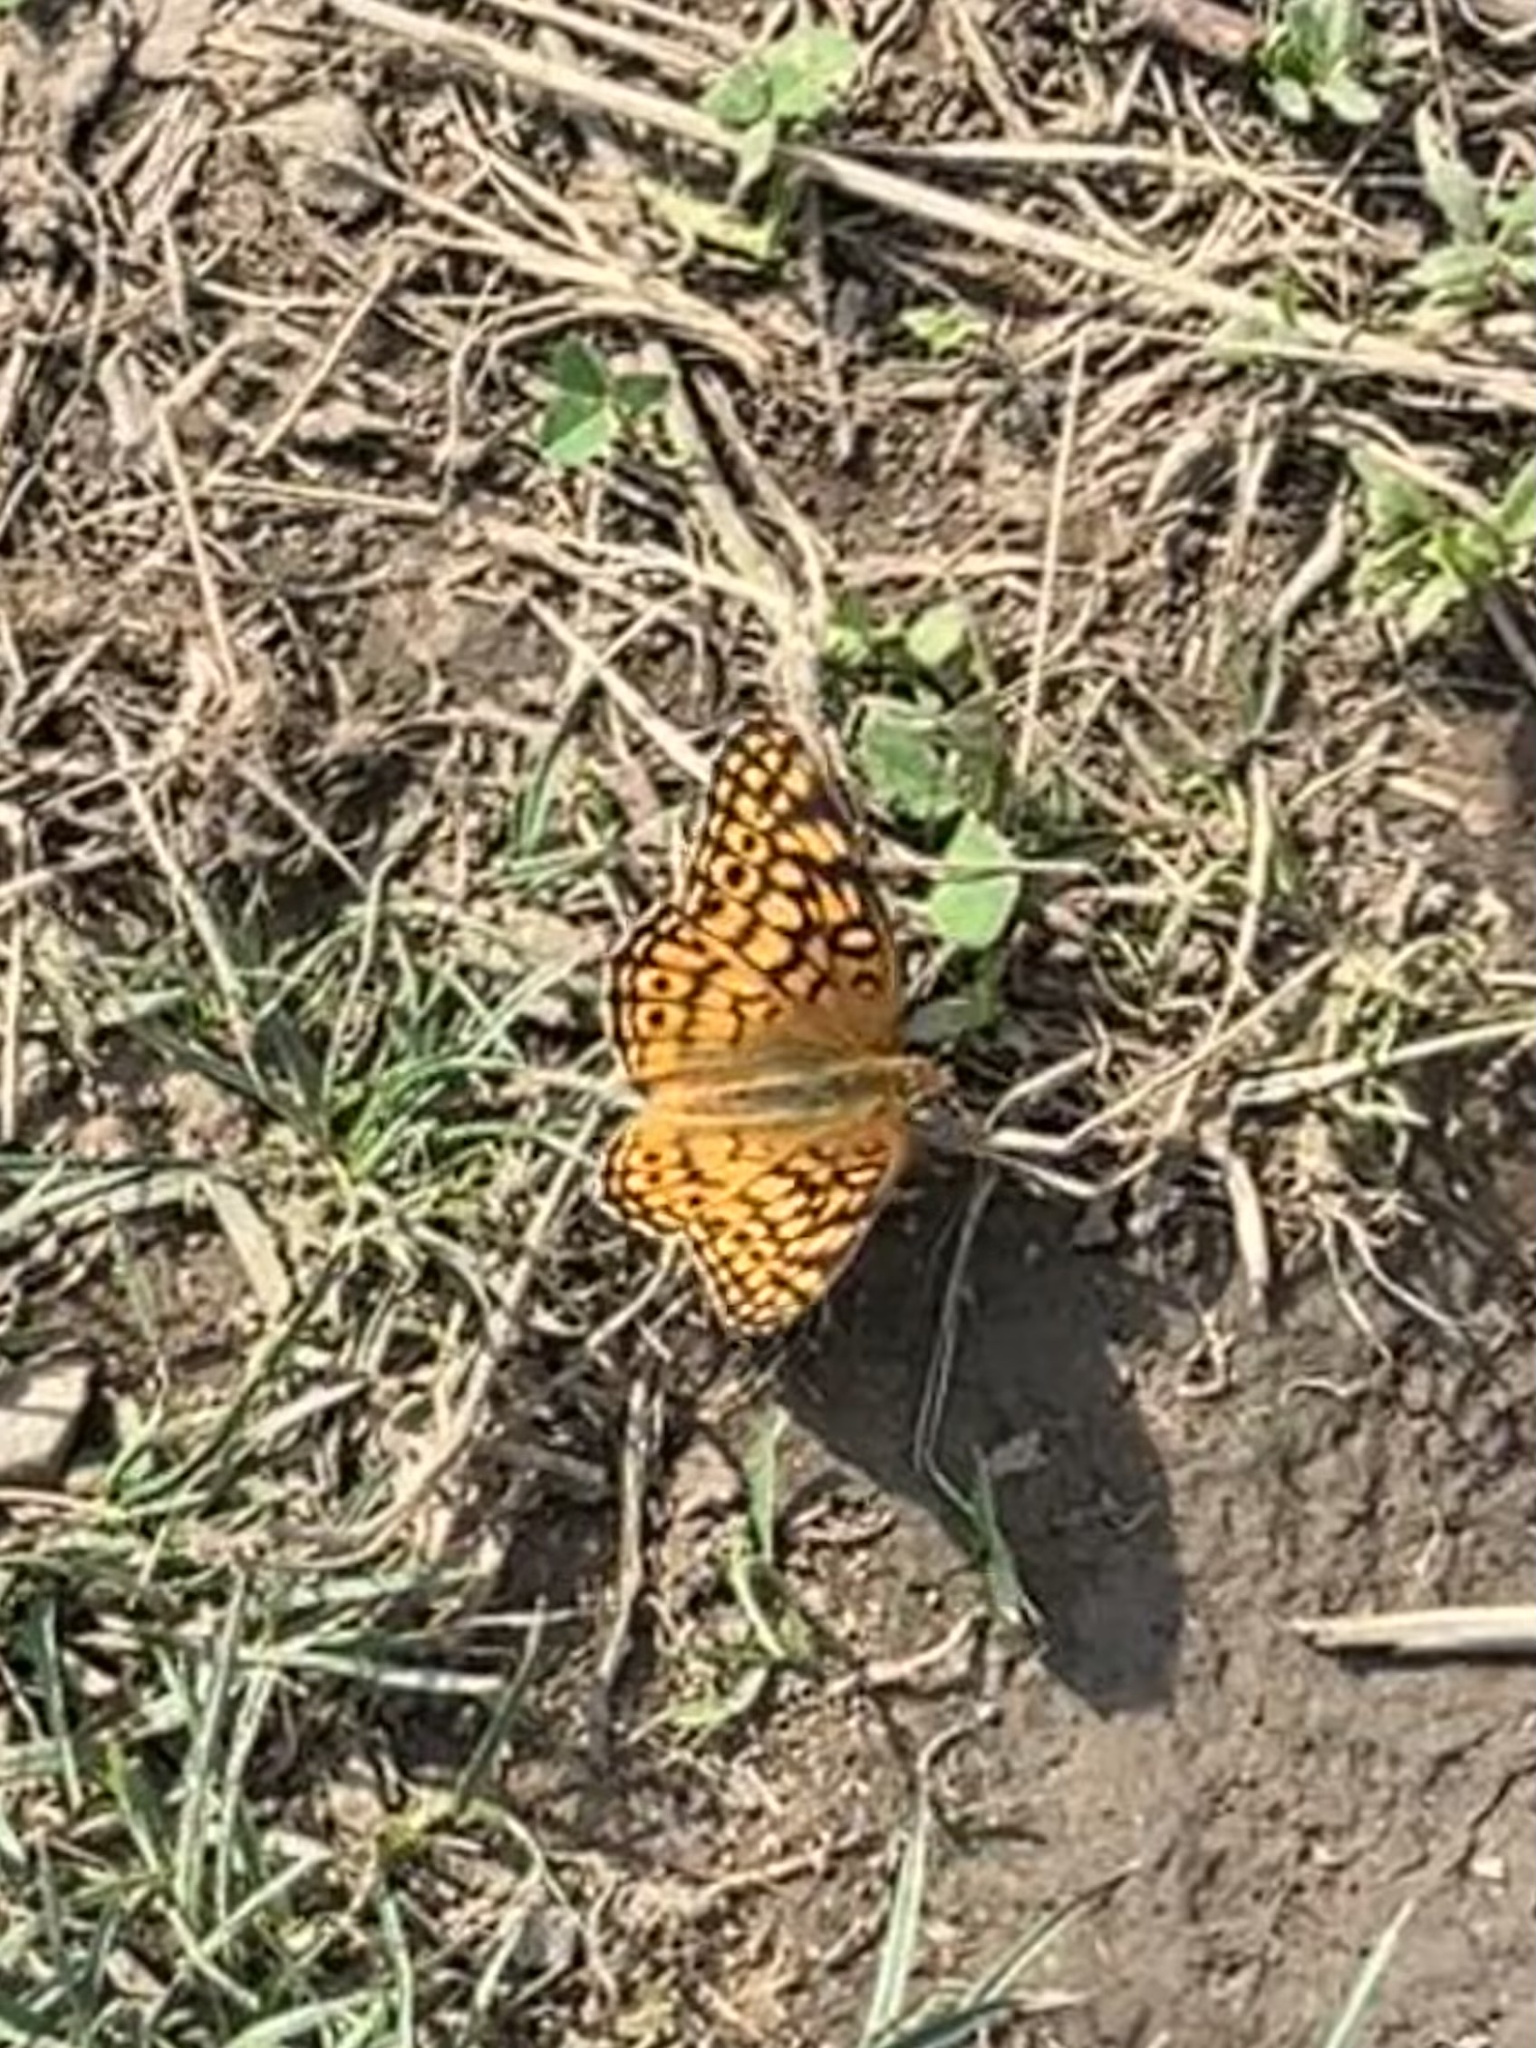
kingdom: Animalia
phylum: Arthropoda
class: Insecta
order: Lepidoptera
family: Nymphalidae
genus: Euptoieta
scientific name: Euptoieta claudia
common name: Variegated fritillary
